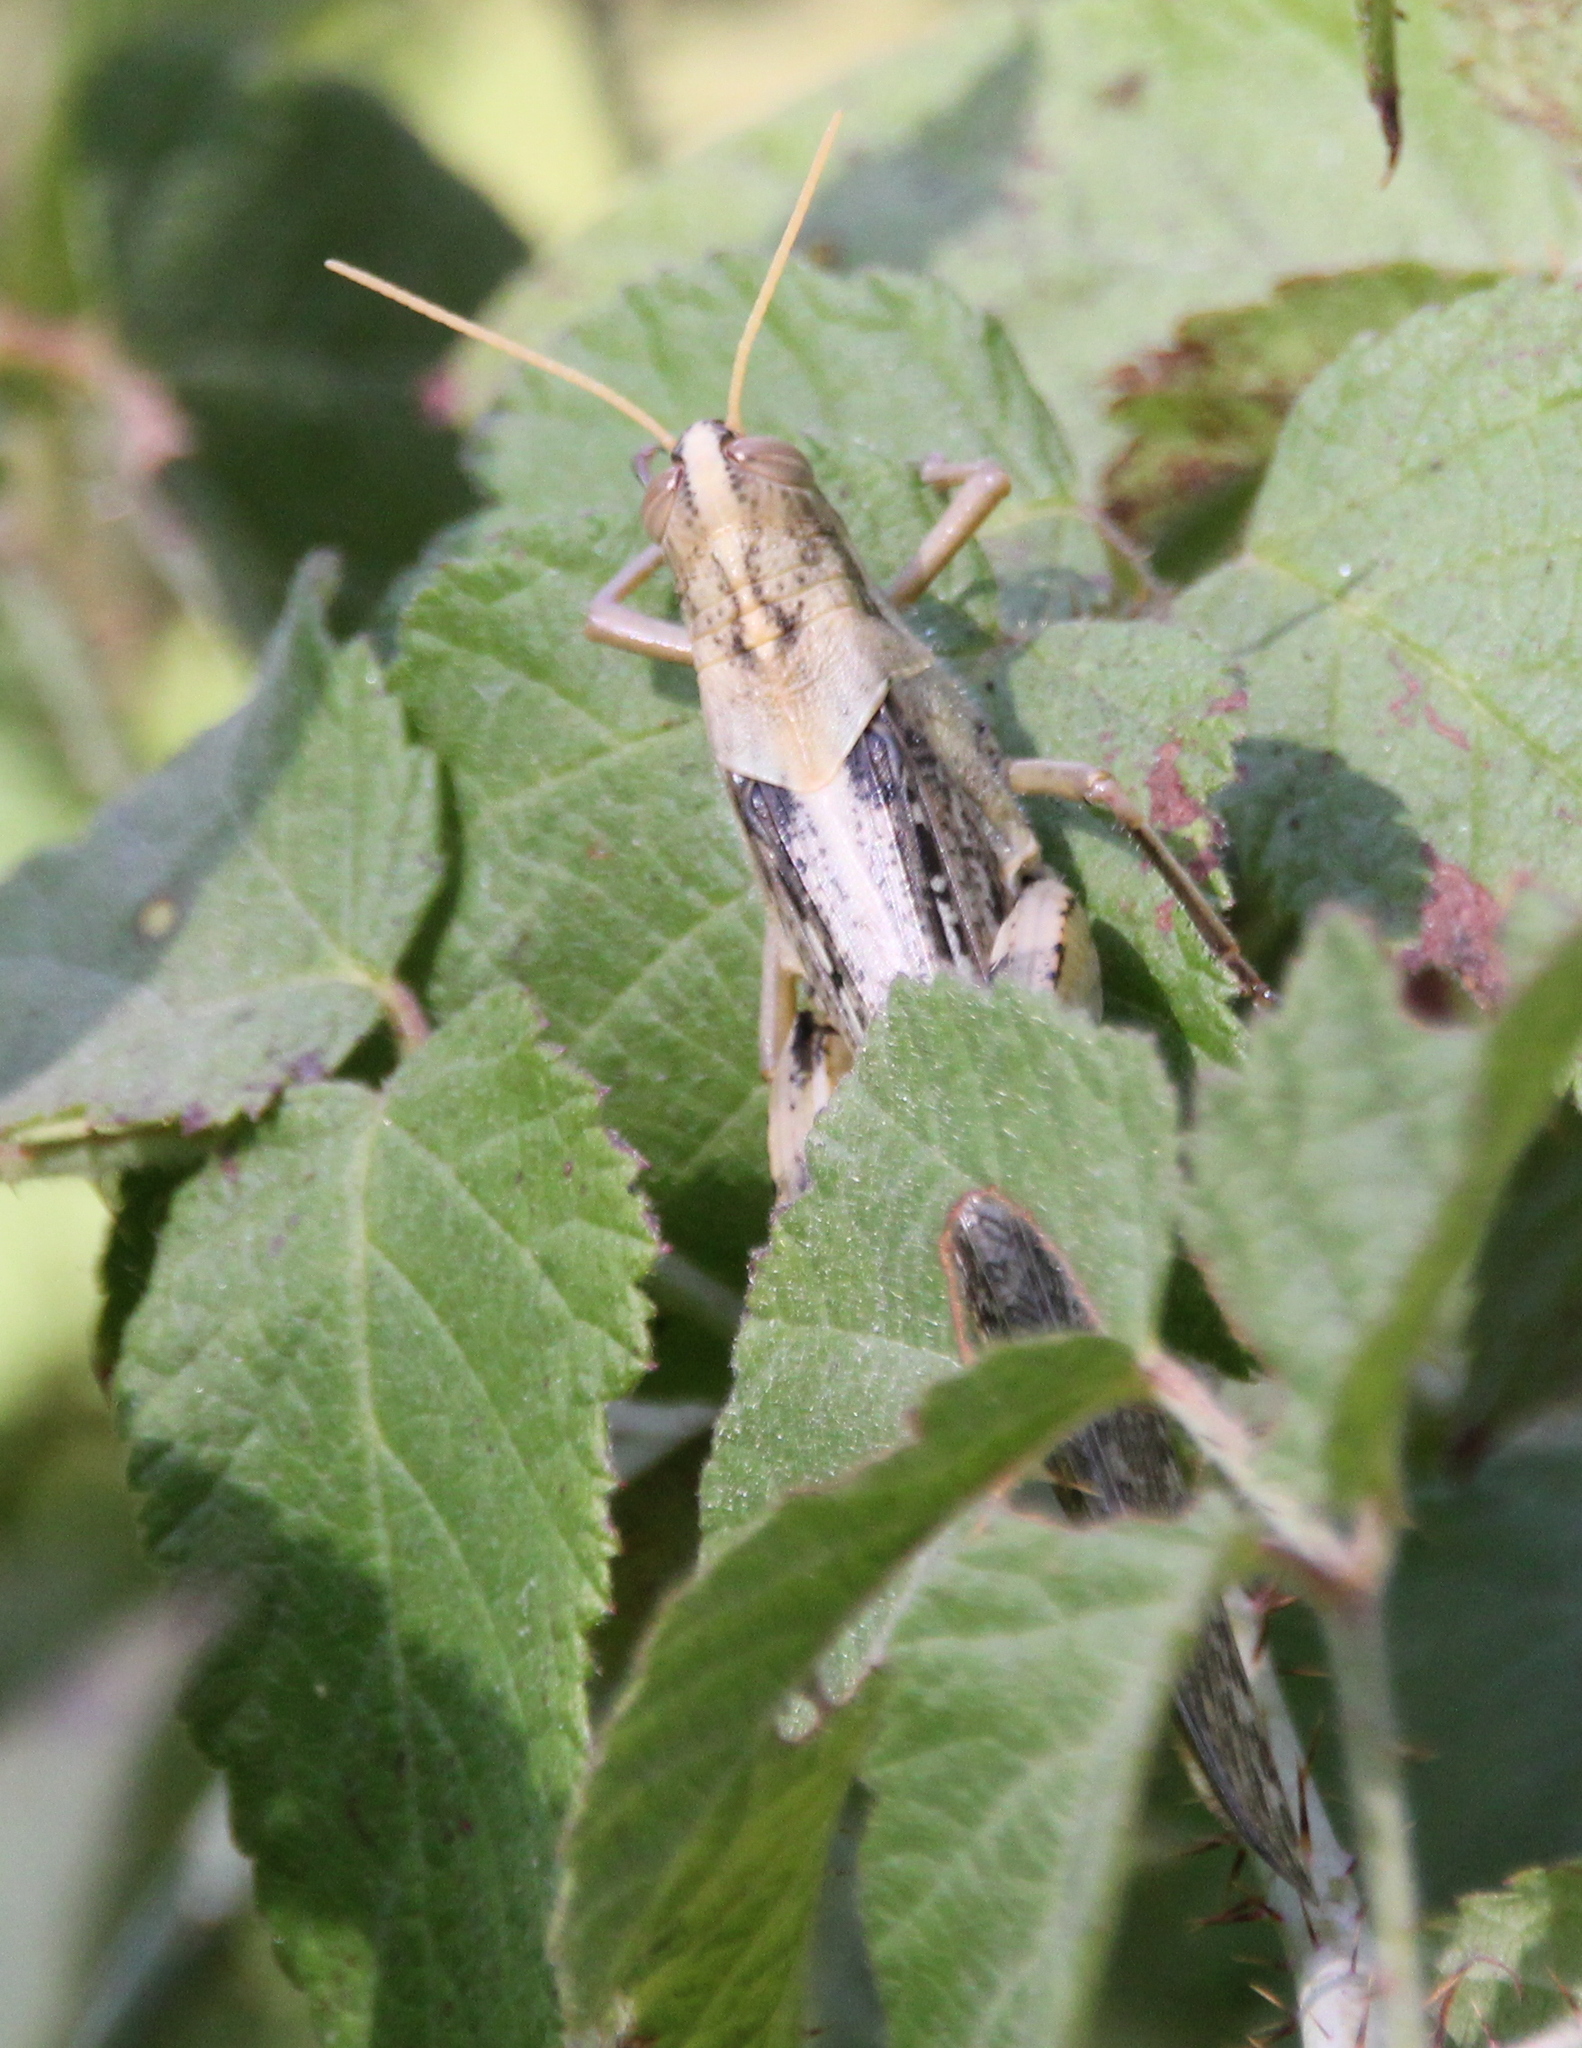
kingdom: Animalia
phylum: Arthropoda
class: Insecta
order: Orthoptera
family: Acrididae
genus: Schistocerca
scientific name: Schistocerca nitens
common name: Vagrant grasshopper
